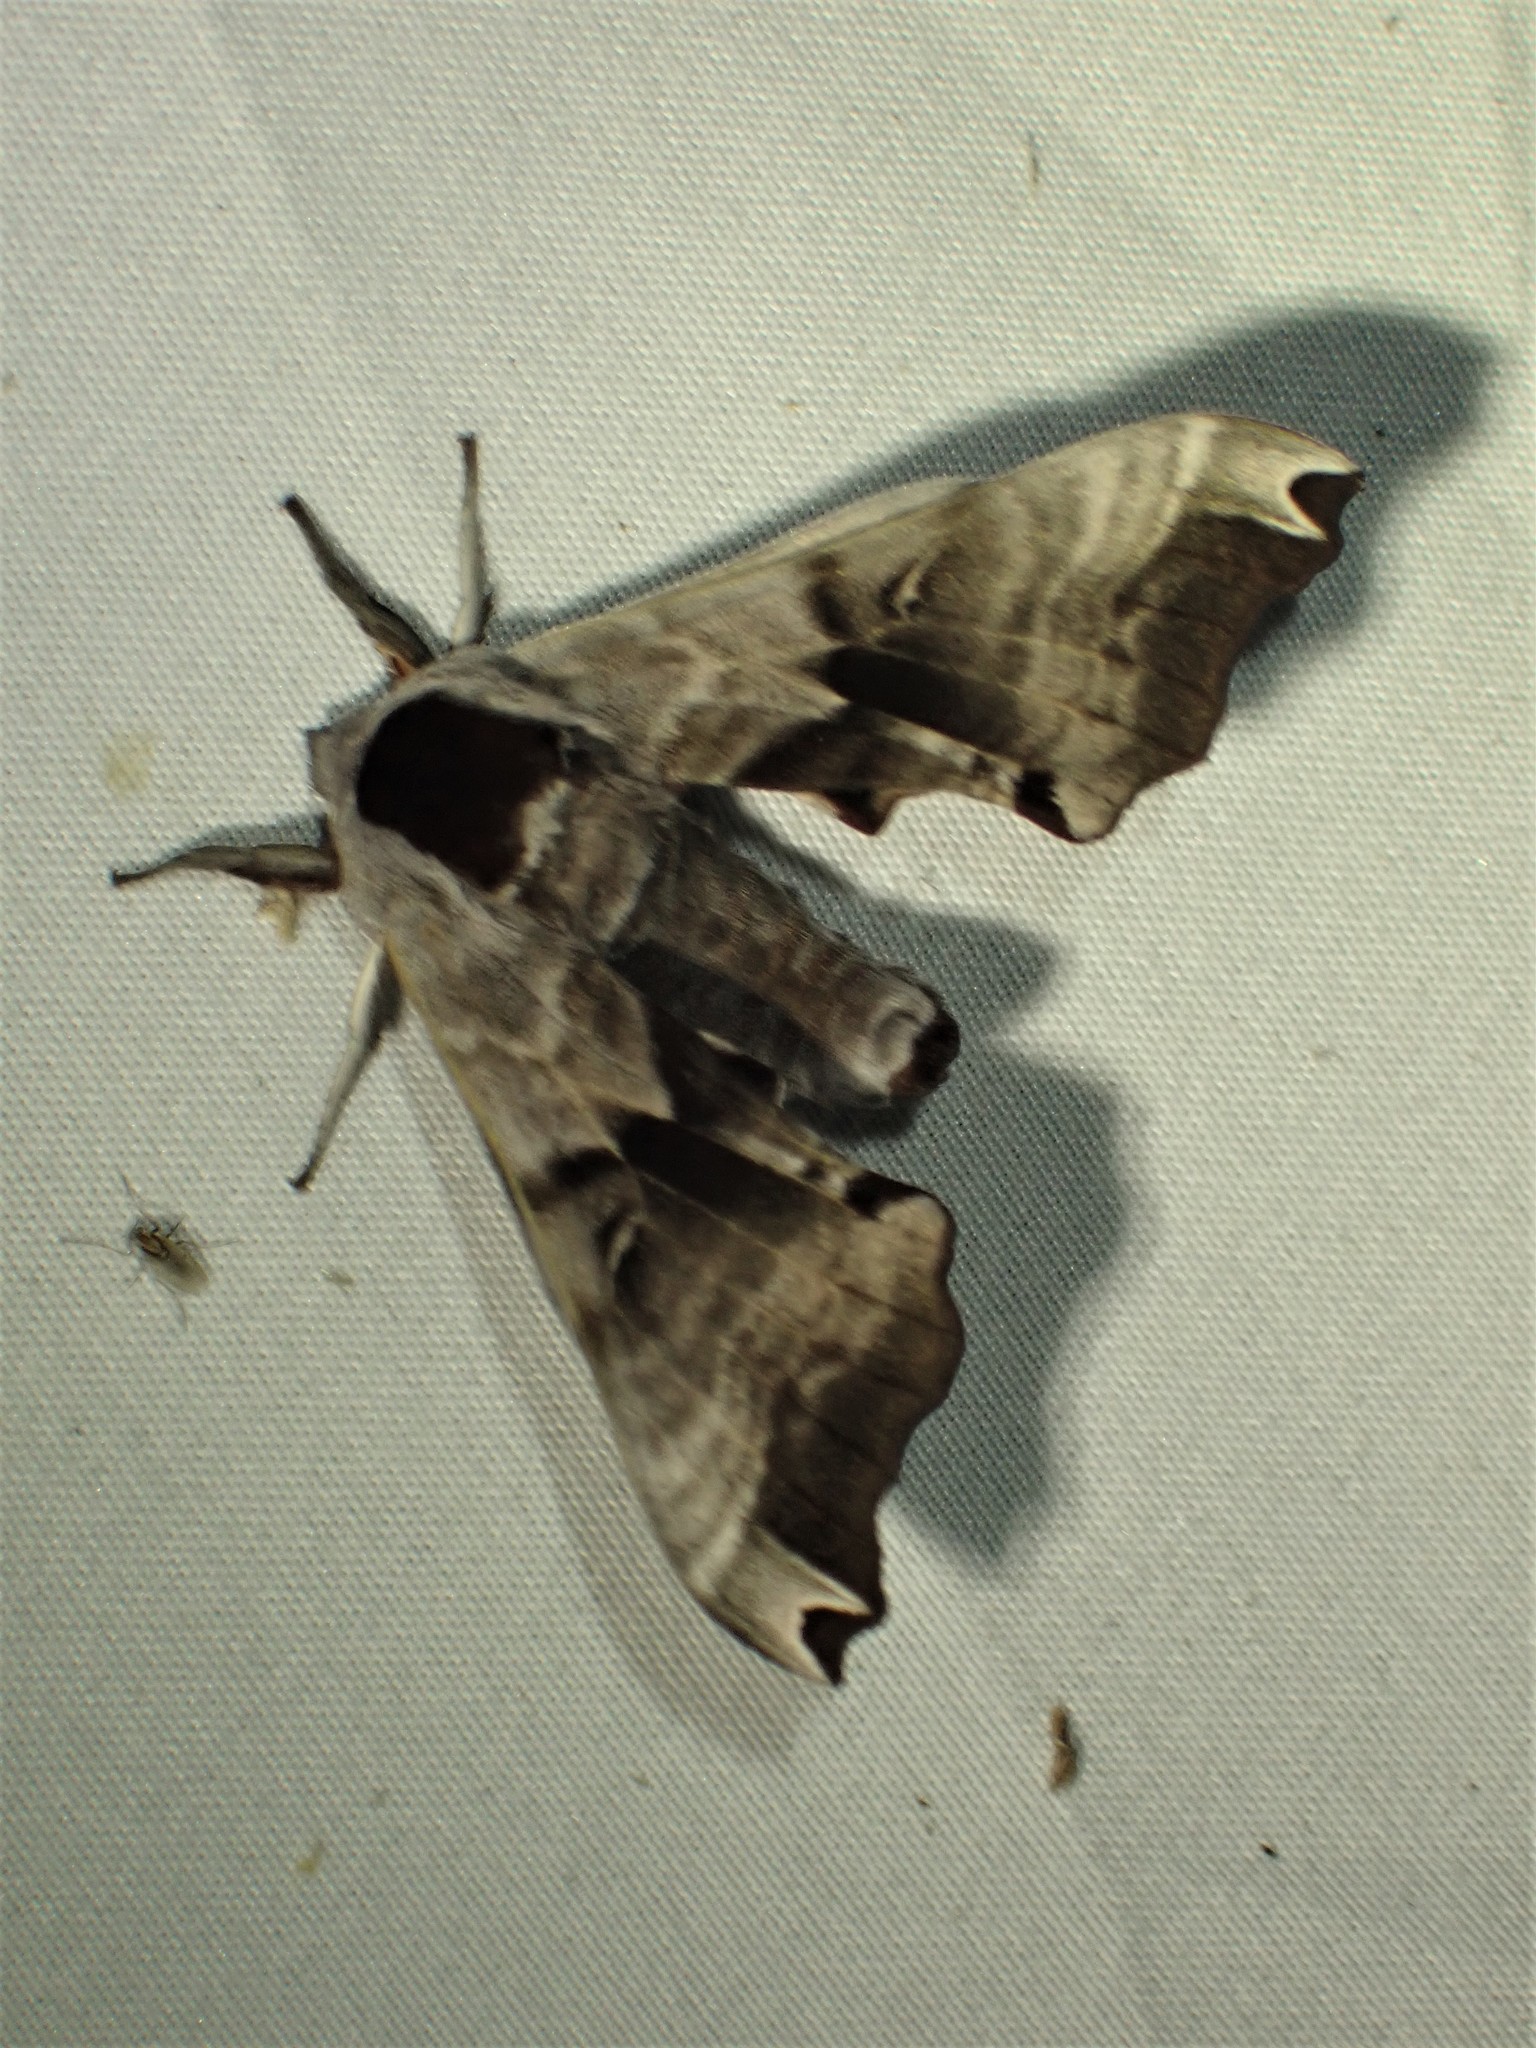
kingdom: Animalia
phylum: Arthropoda
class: Insecta
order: Lepidoptera
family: Sphingidae
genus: Smerinthus
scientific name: Smerinthus jamaicensis
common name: Twin spotted sphinx
